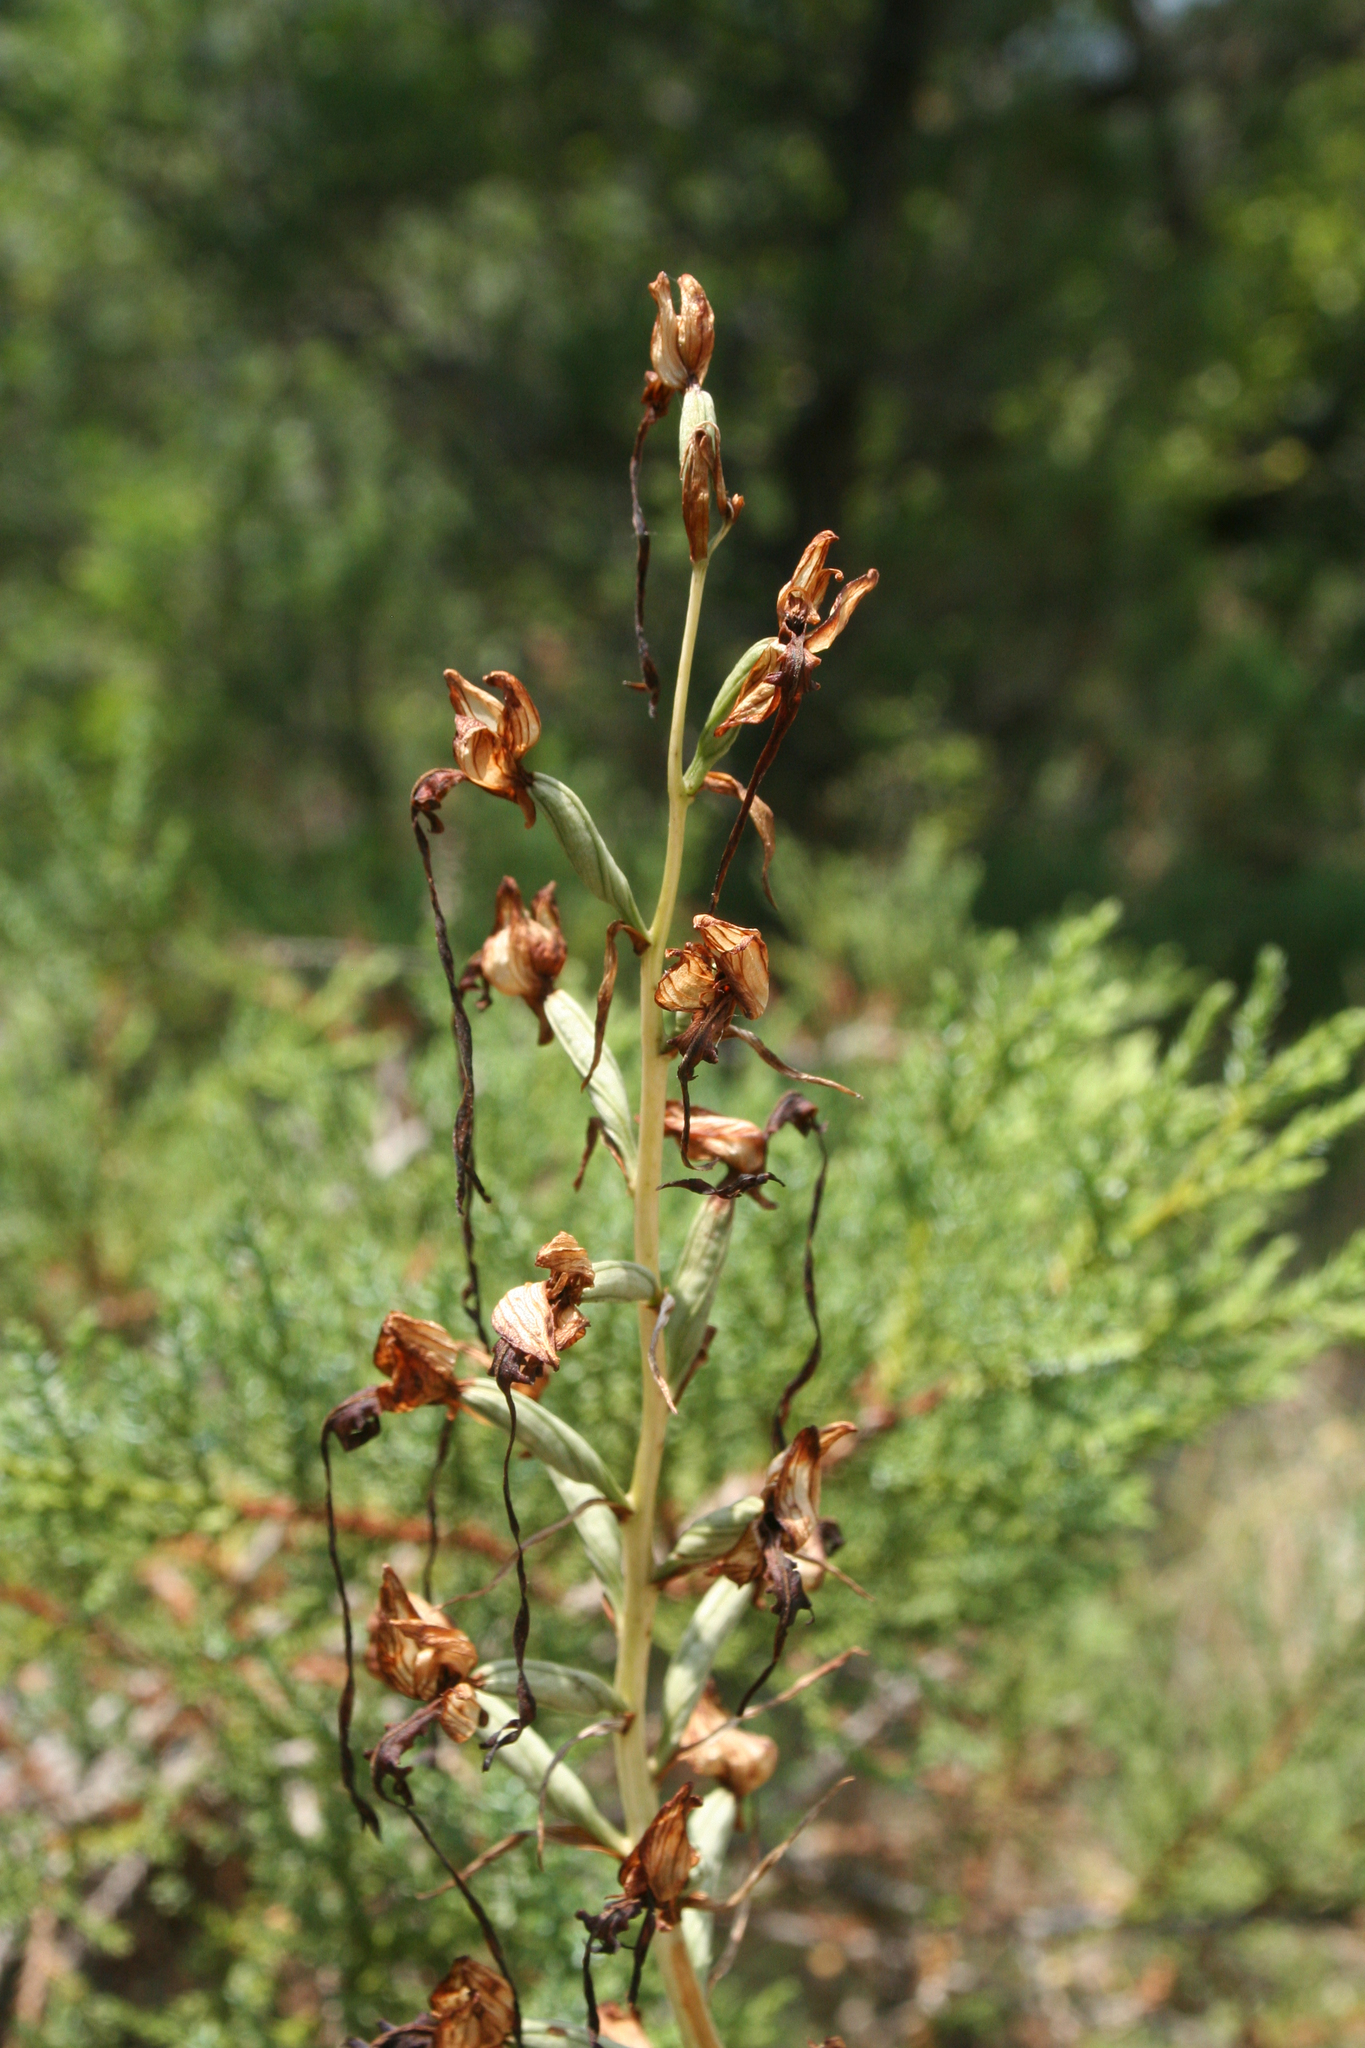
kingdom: Plantae
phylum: Tracheophyta
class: Liliopsida
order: Asparagales
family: Orchidaceae
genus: Himantoglossum
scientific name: Himantoglossum caprinum
